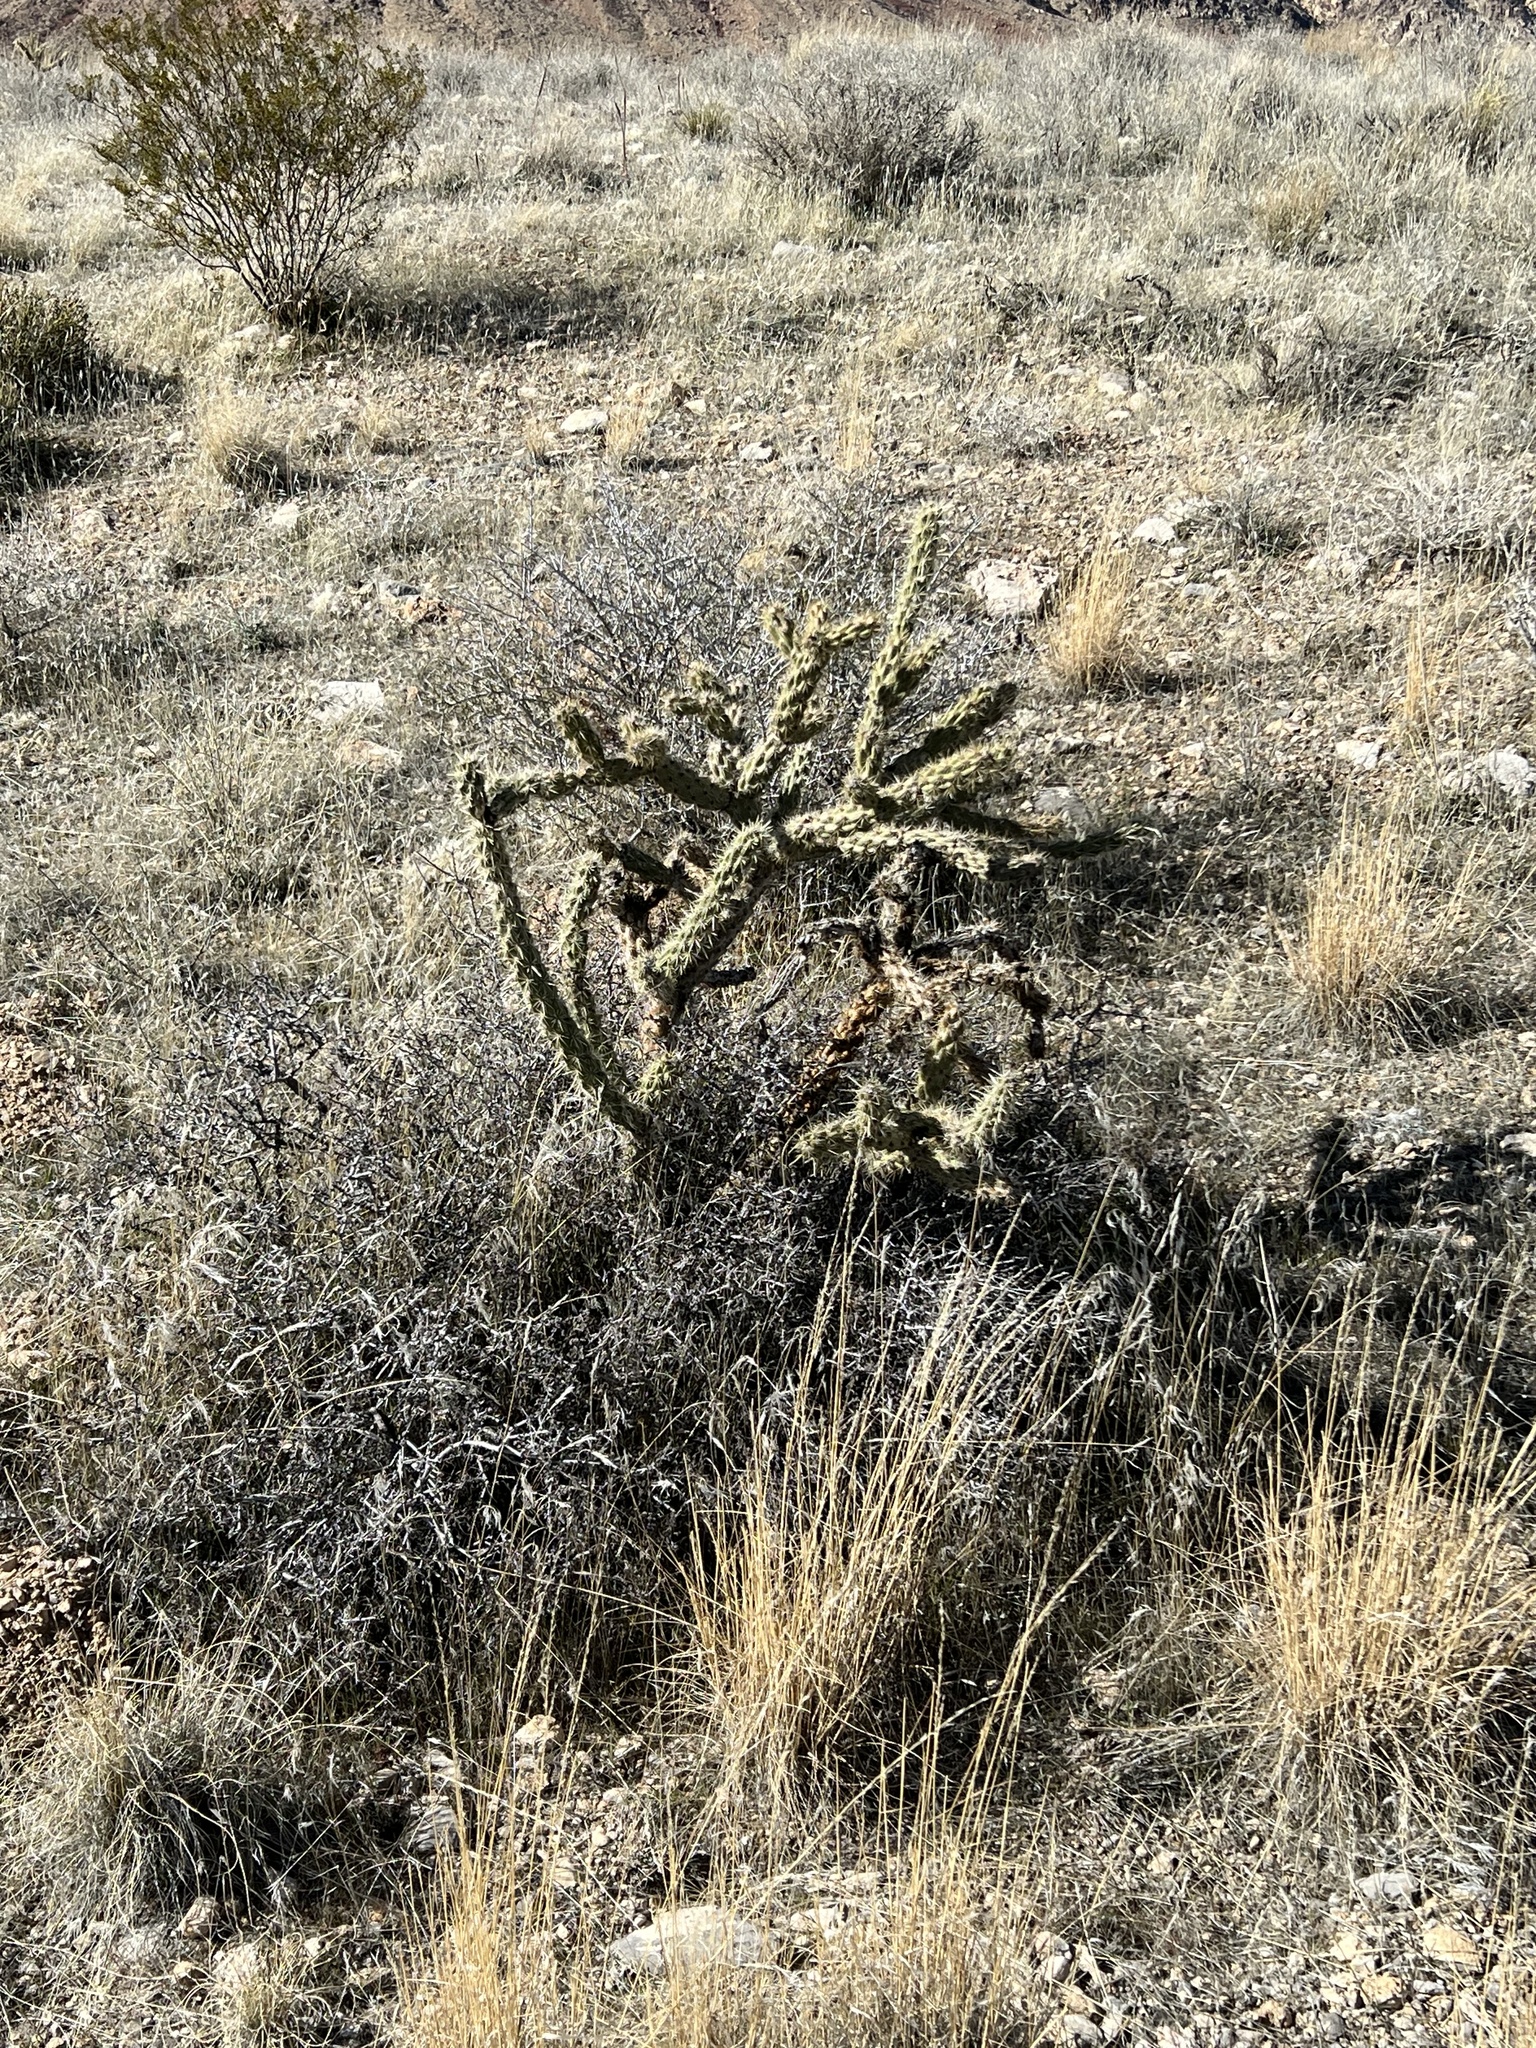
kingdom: Plantae
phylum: Tracheophyta
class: Magnoliopsida
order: Caryophyllales
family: Cactaceae
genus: Cylindropuntia
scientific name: Cylindropuntia acanthocarpa
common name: Buckhorn cholla
